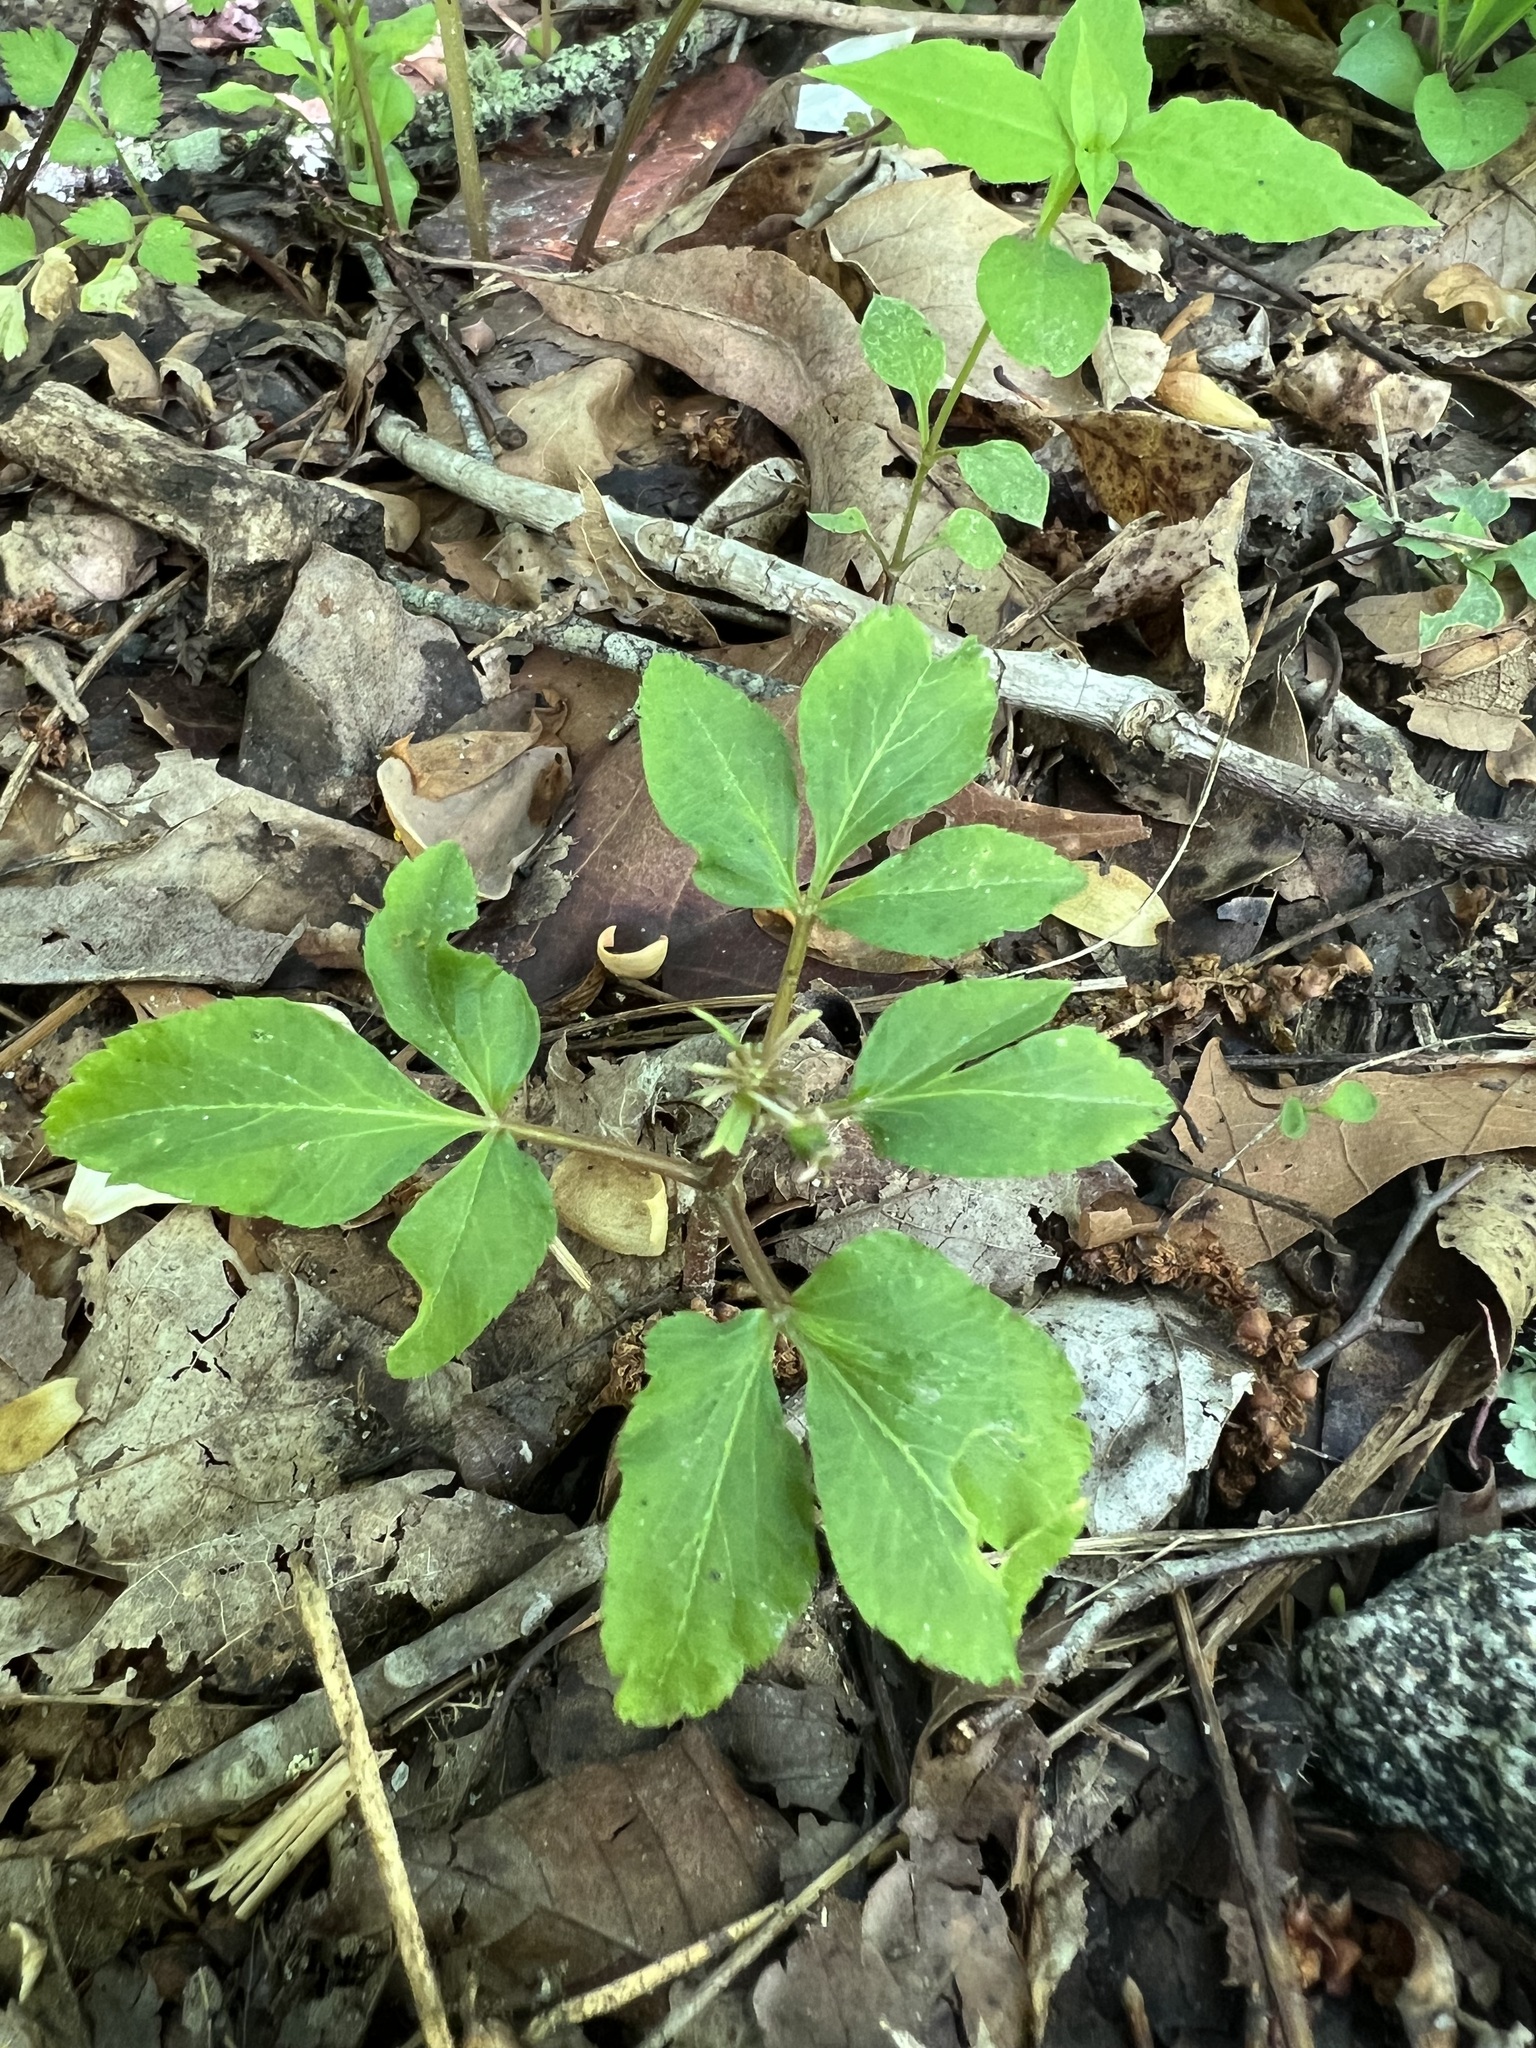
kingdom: Plantae
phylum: Tracheophyta
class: Magnoliopsida
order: Apiales
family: Araliaceae
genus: Panax
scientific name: Panax trifolius
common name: Dwarf ginseng
